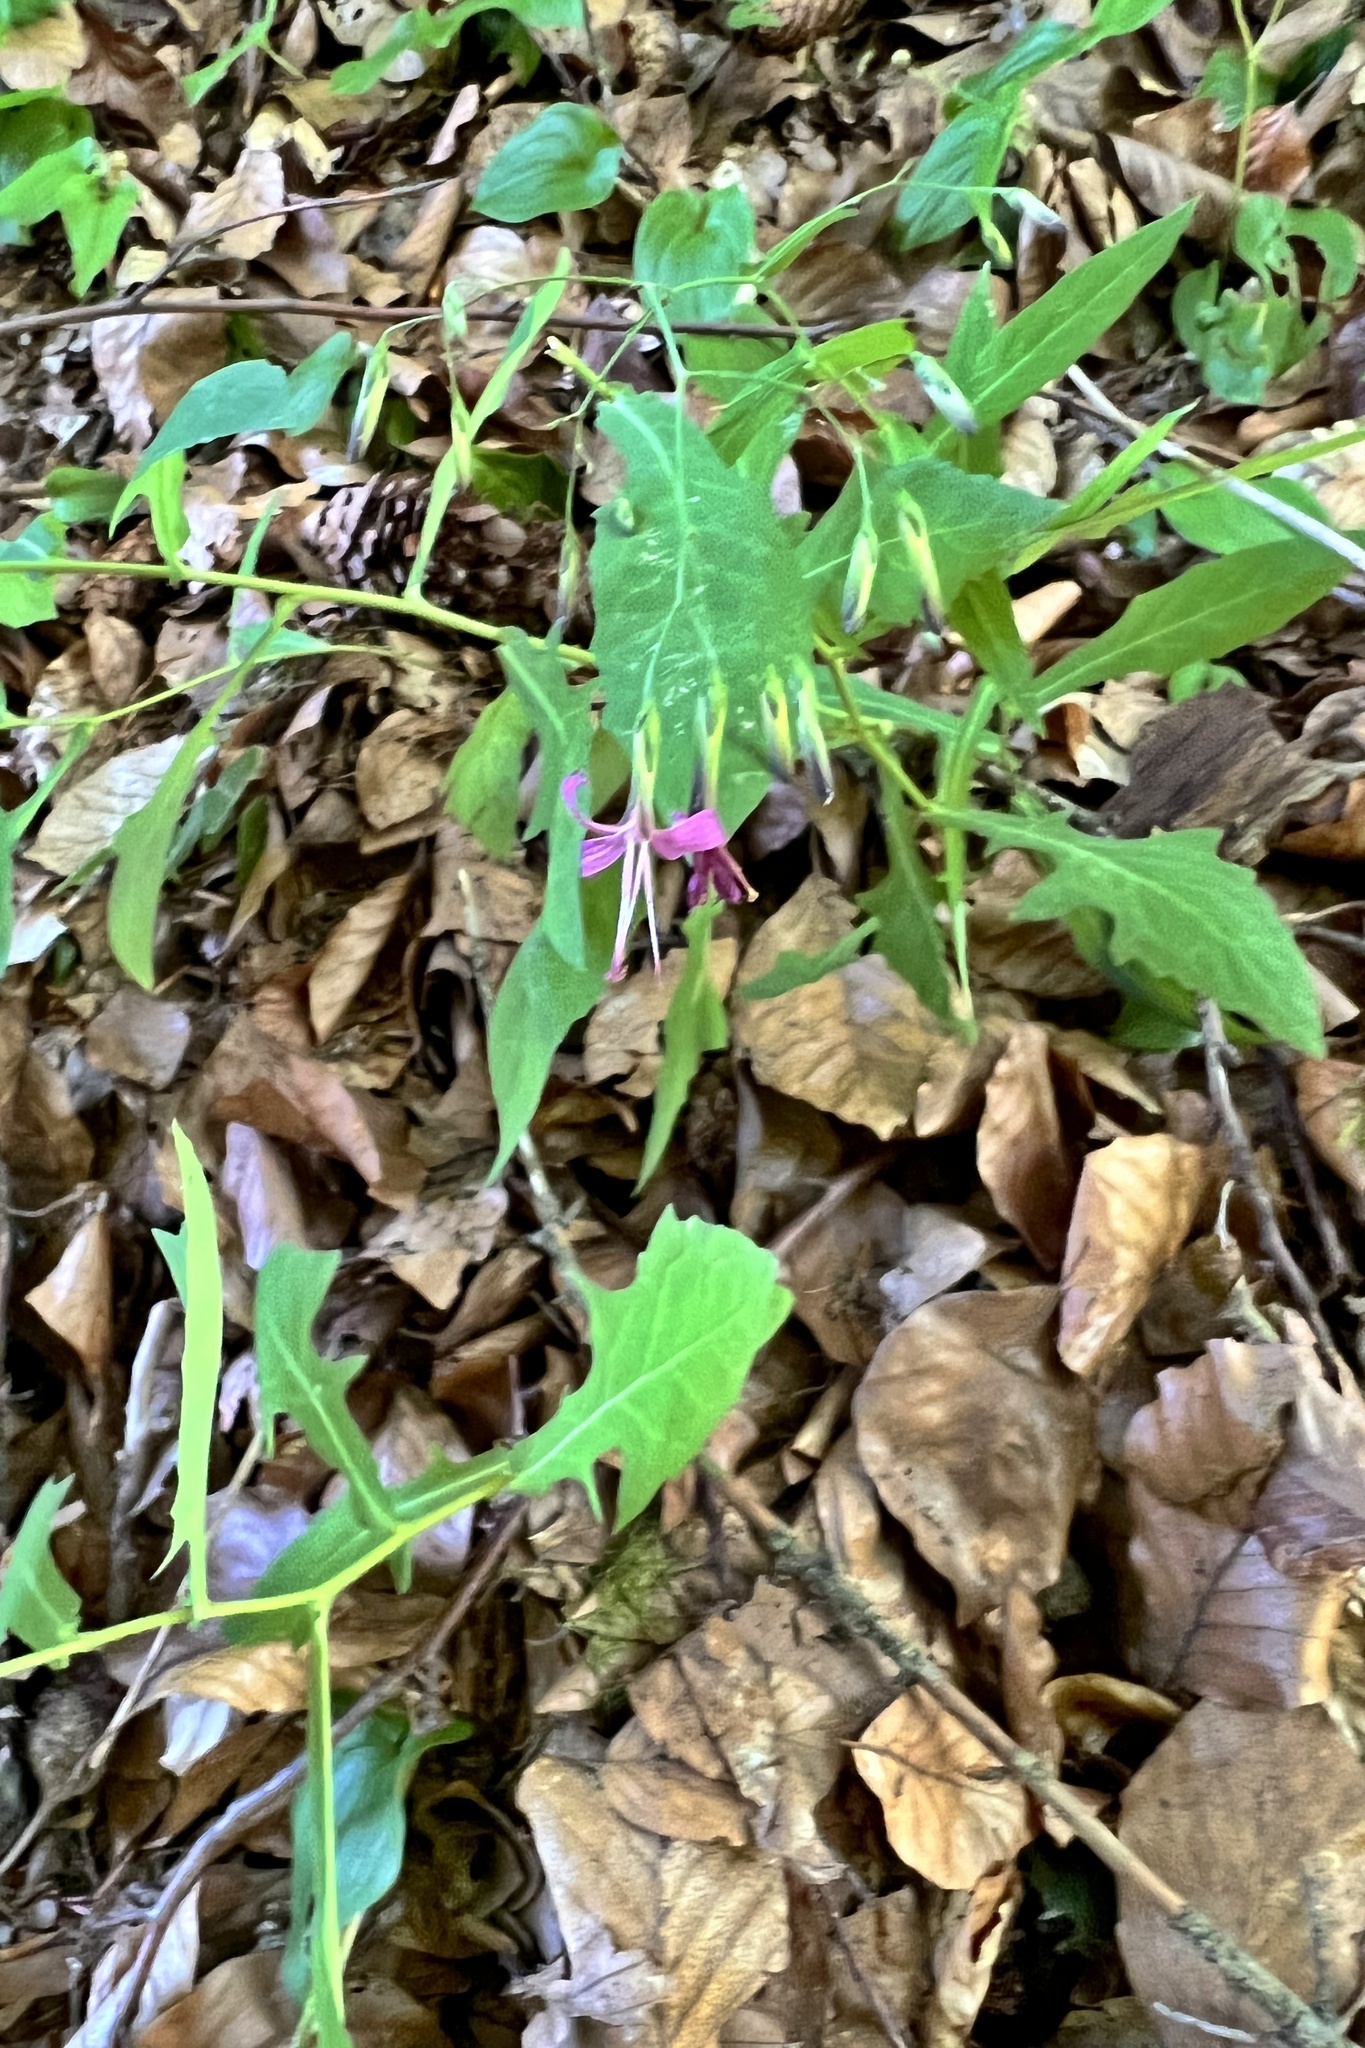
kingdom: Plantae
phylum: Tracheophyta
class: Magnoliopsida
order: Asterales
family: Asteraceae
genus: Prenanthes
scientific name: Prenanthes purpurea
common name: Purple lettuce
